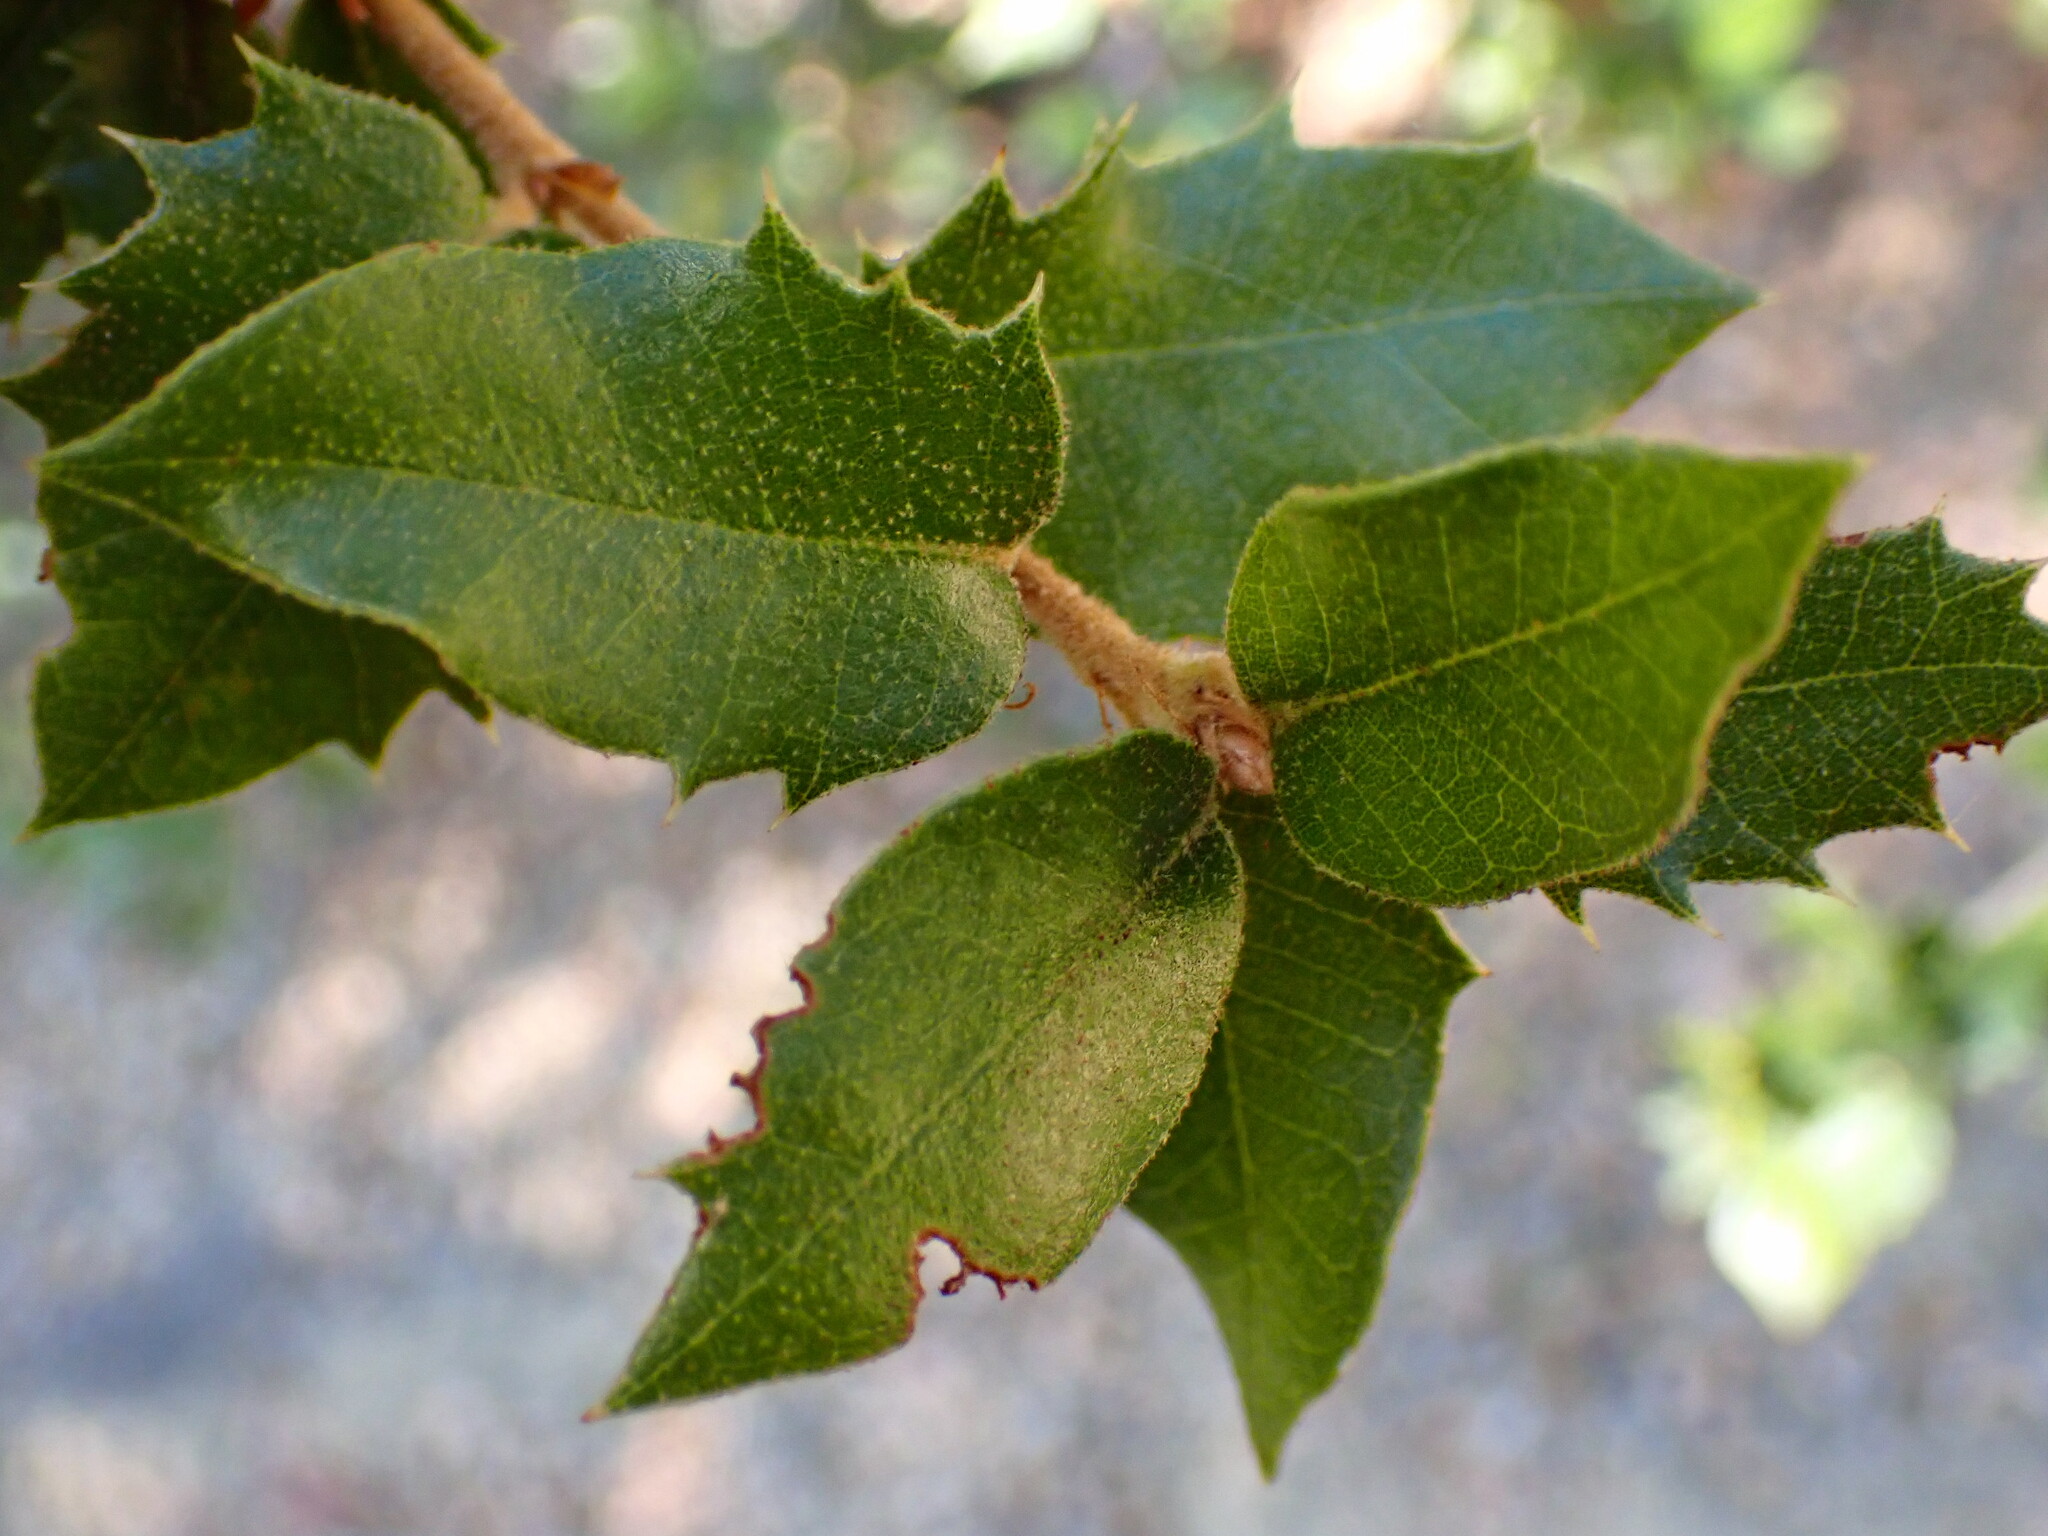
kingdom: Plantae
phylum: Tracheophyta
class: Magnoliopsida
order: Fagales
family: Fagaceae
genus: Quercus
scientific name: Quercus chrysolepis
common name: Canyon live oak
